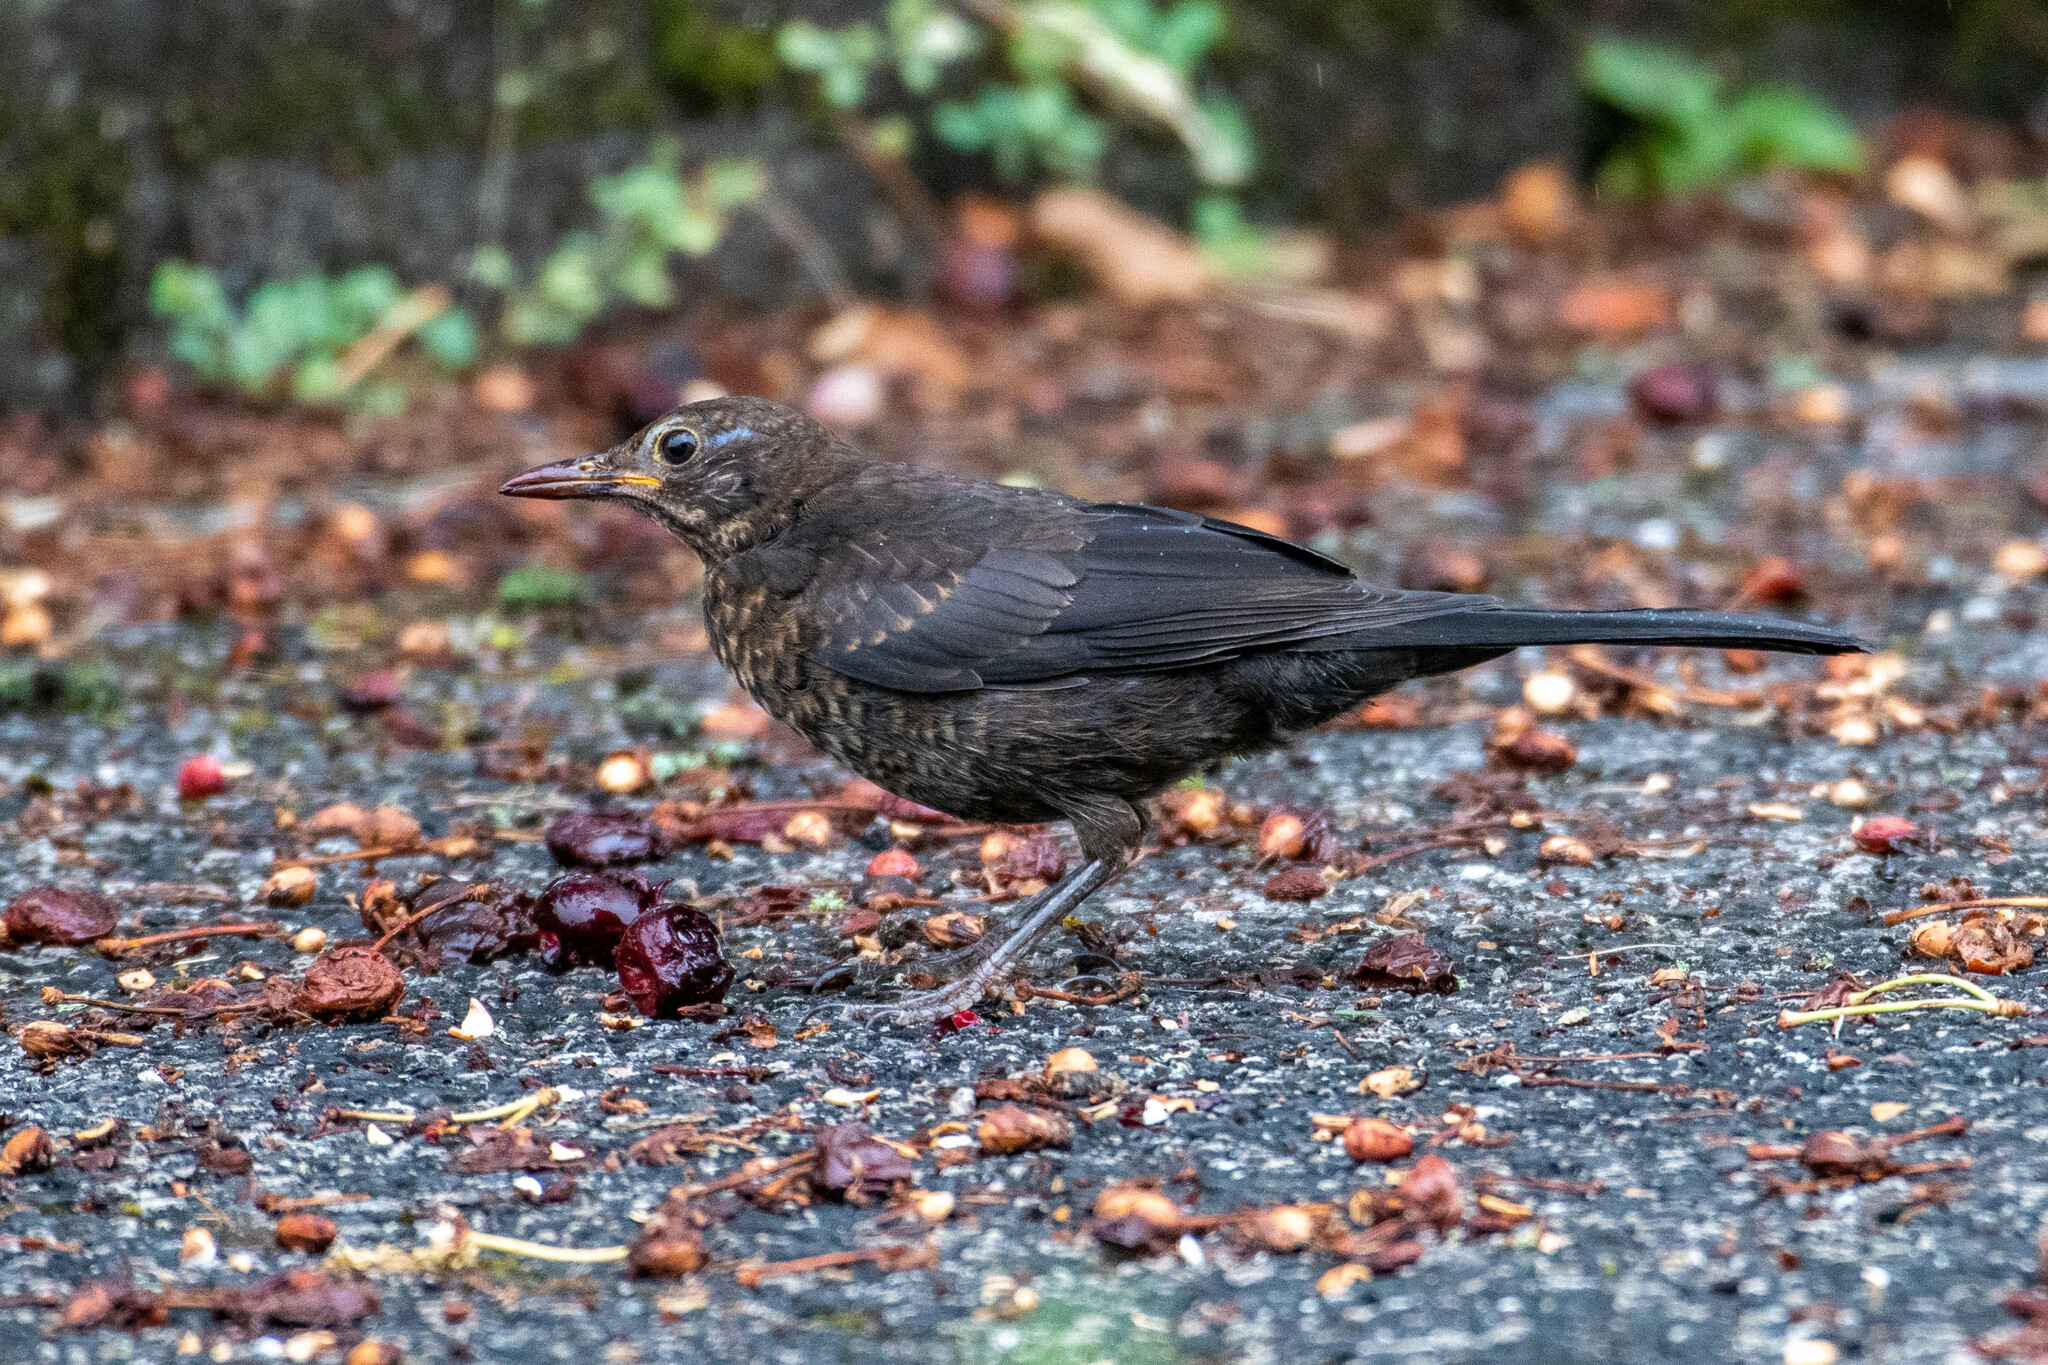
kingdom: Animalia
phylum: Chordata
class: Aves
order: Passeriformes
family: Turdidae
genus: Turdus
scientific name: Turdus merula
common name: Common blackbird
